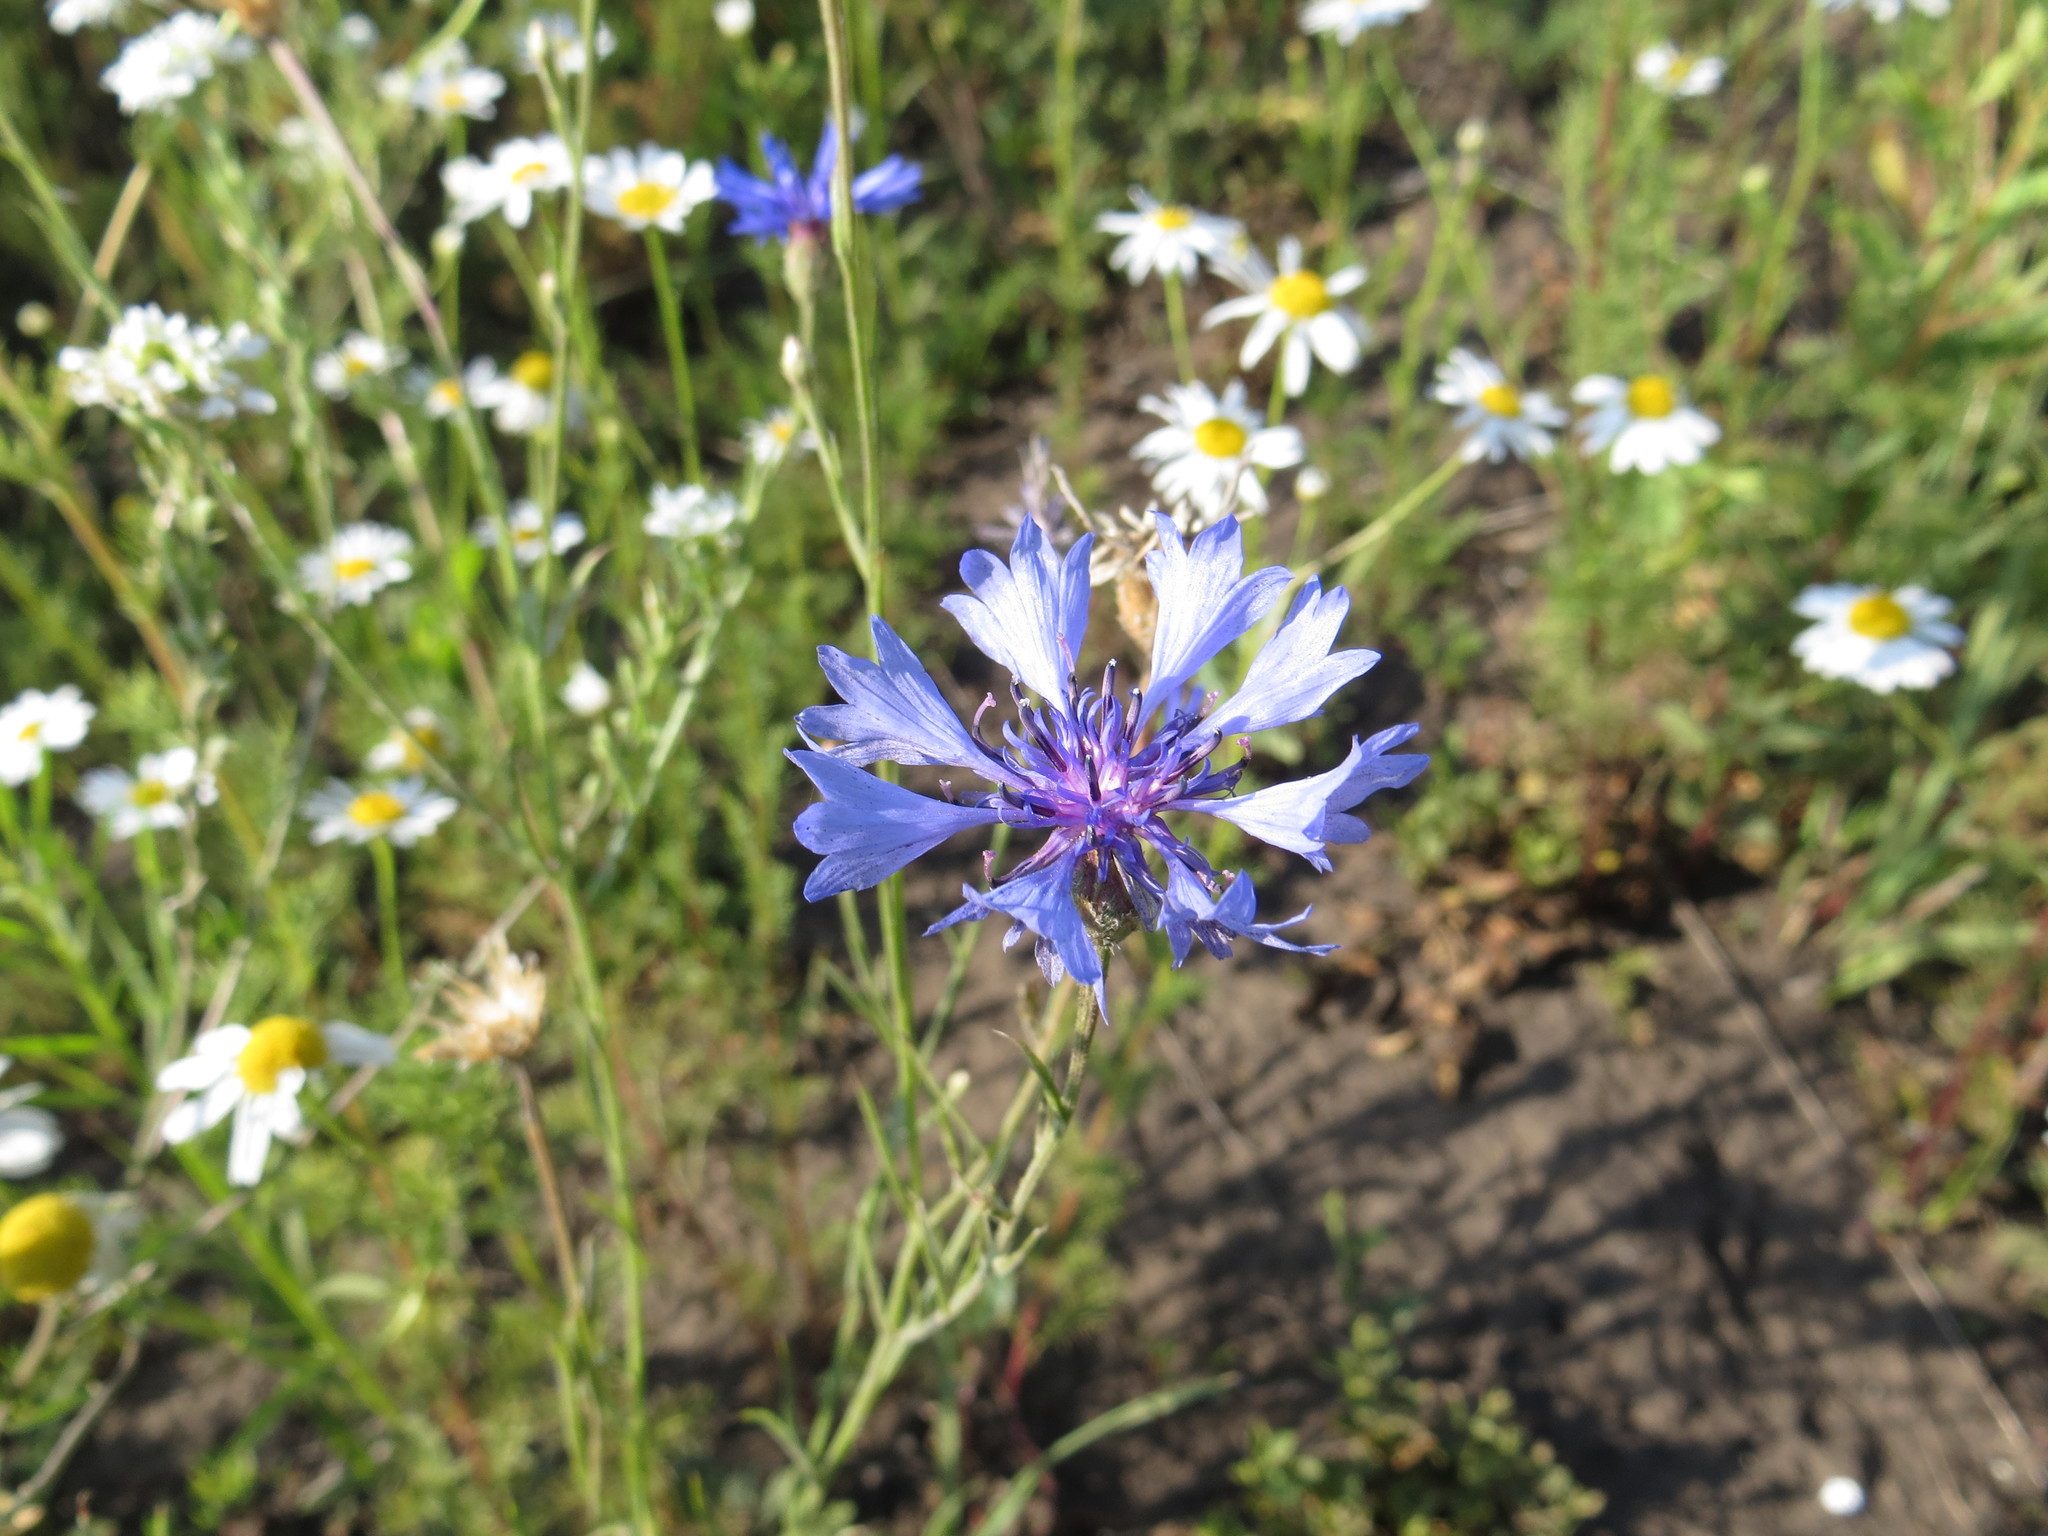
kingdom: Plantae
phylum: Tracheophyta
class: Magnoliopsida
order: Asterales
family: Asteraceae
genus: Centaurea
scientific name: Centaurea cyanus
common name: Cornflower
